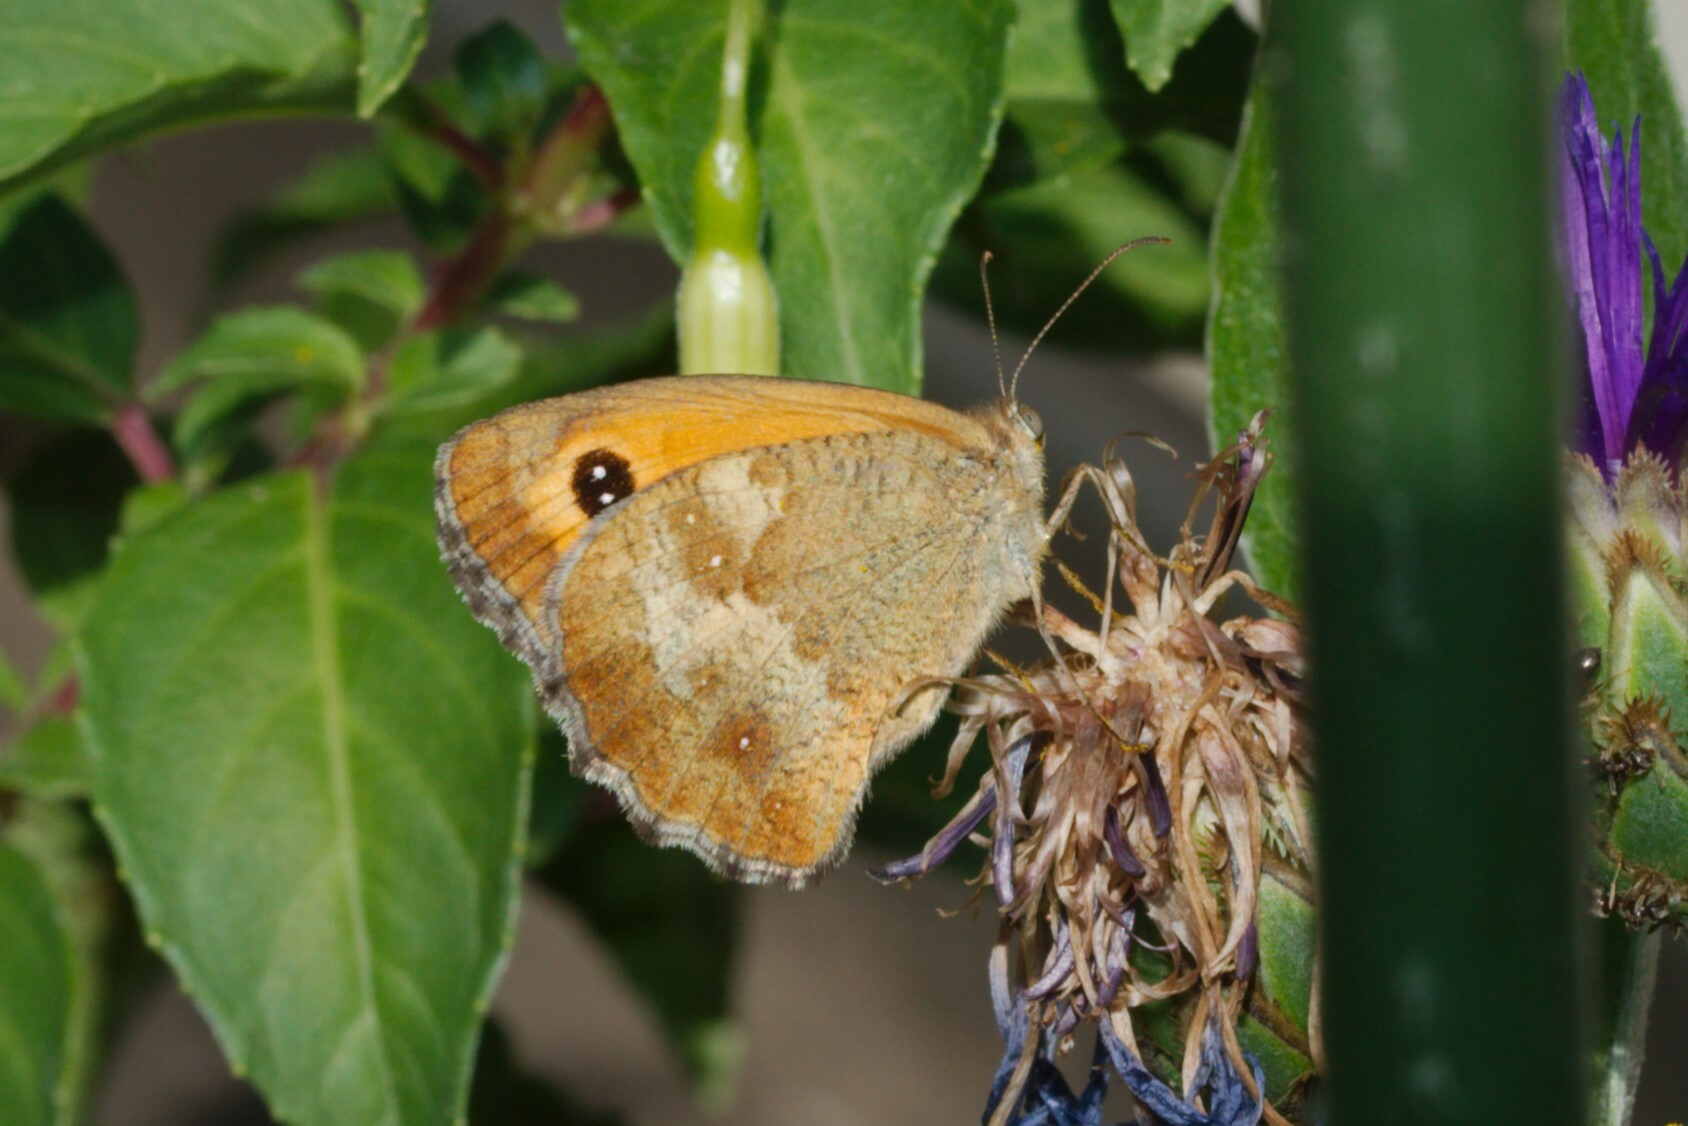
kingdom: Animalia
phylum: Arthropoda
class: Insecta
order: Lepidoptera
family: Nymphalidae
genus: Pyronia
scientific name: Pyronia tithonus
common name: Gatekeeper
